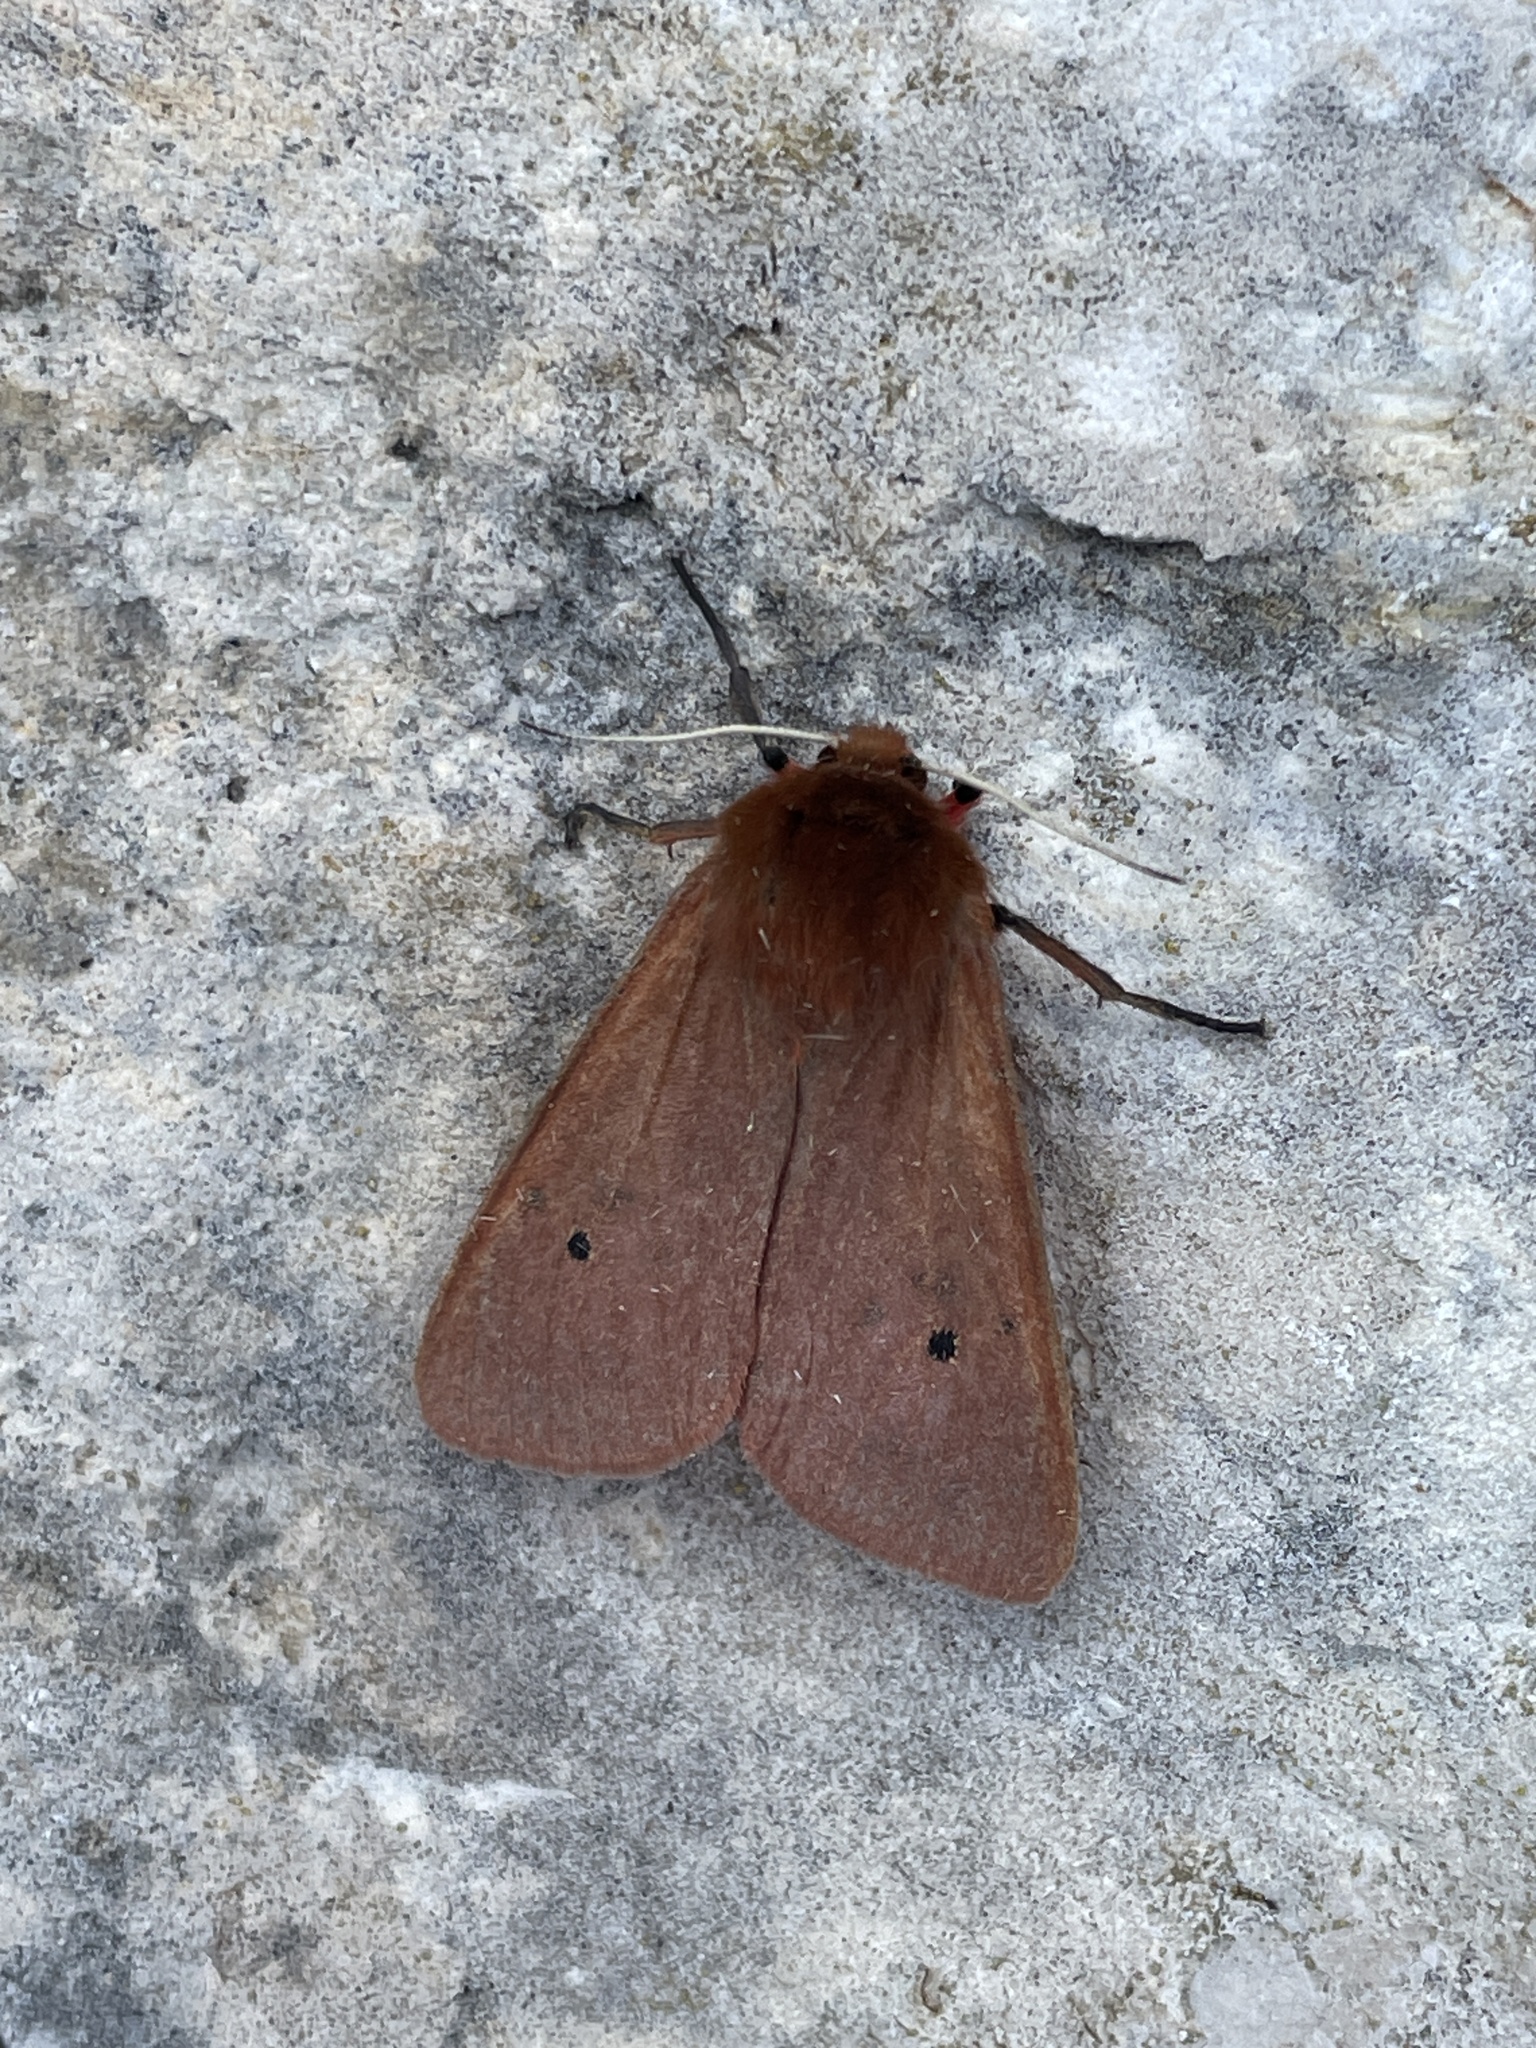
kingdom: Animalia
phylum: Arthropoda
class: Insecta
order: Lepidoptera
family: Erebidae
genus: Phragmatobia
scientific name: Phragmatobia fuliginosa
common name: Ruby tiger
